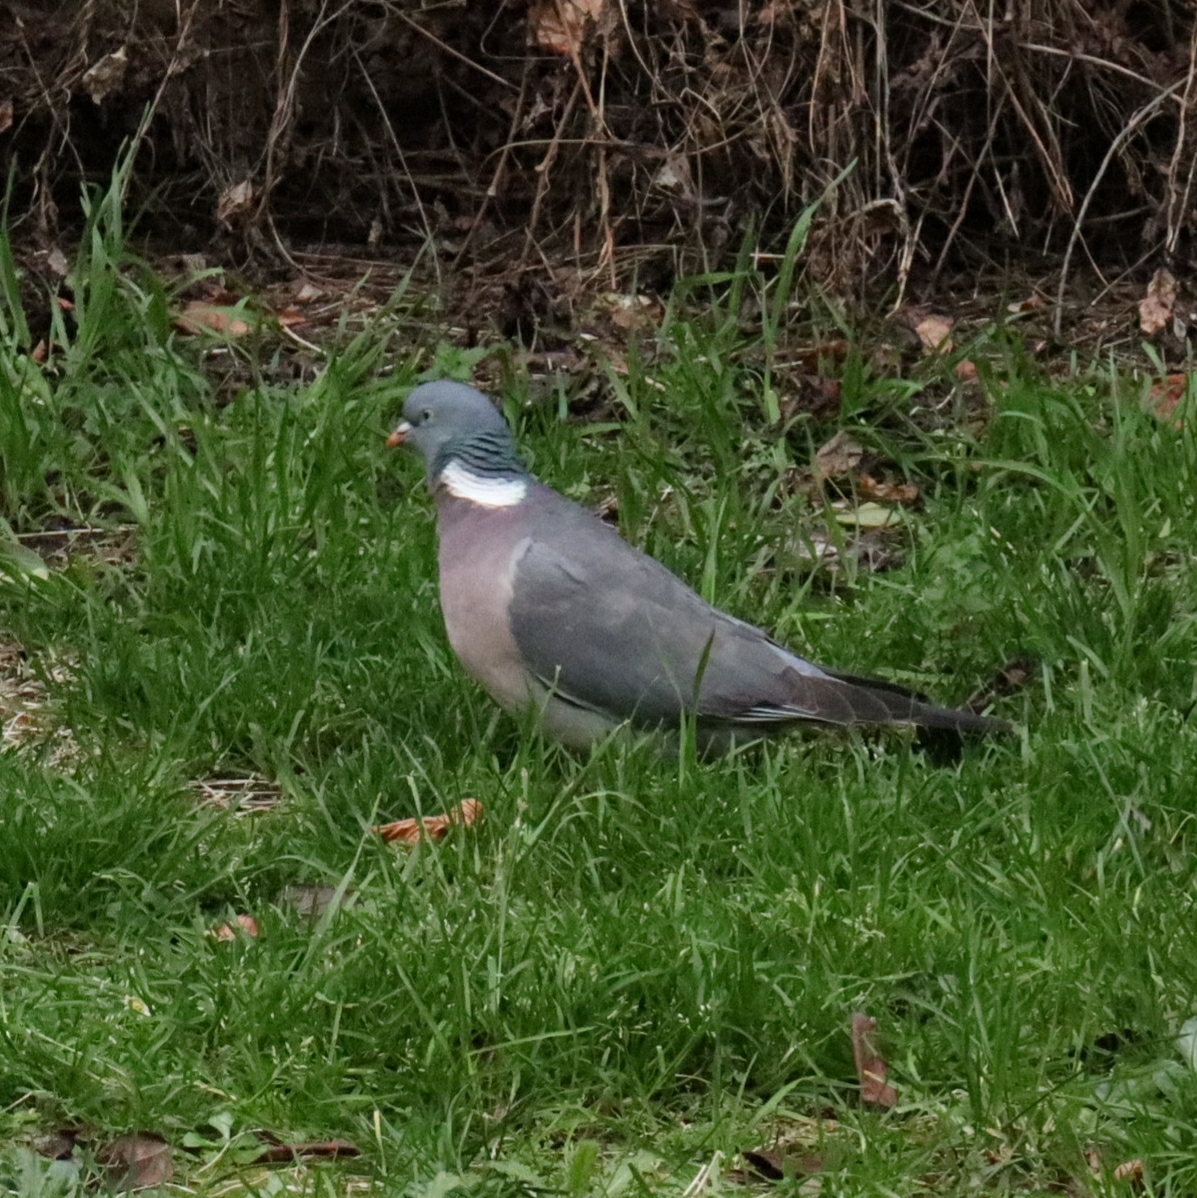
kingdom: Animalia
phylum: Chordata
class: Aves
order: Columbiformes
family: Columbidae
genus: Columba
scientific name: Columba palumbus
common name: Common wood pigeon
